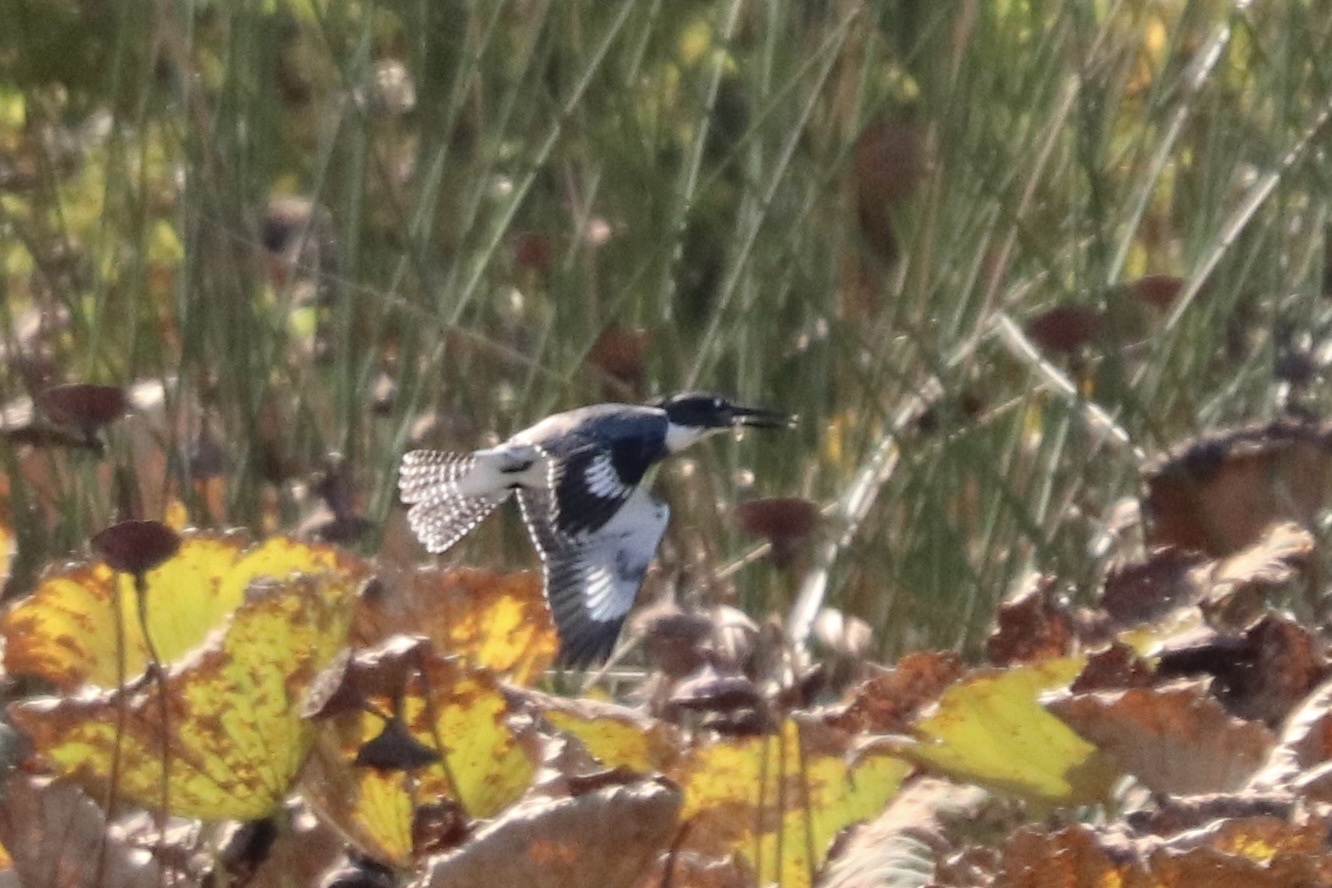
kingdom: Animalia
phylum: Chordata
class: Aves
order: Coraciiformes
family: Alcedinidae
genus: Megaceryle
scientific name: Megaceryle alcyon
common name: Belted kingfisher
